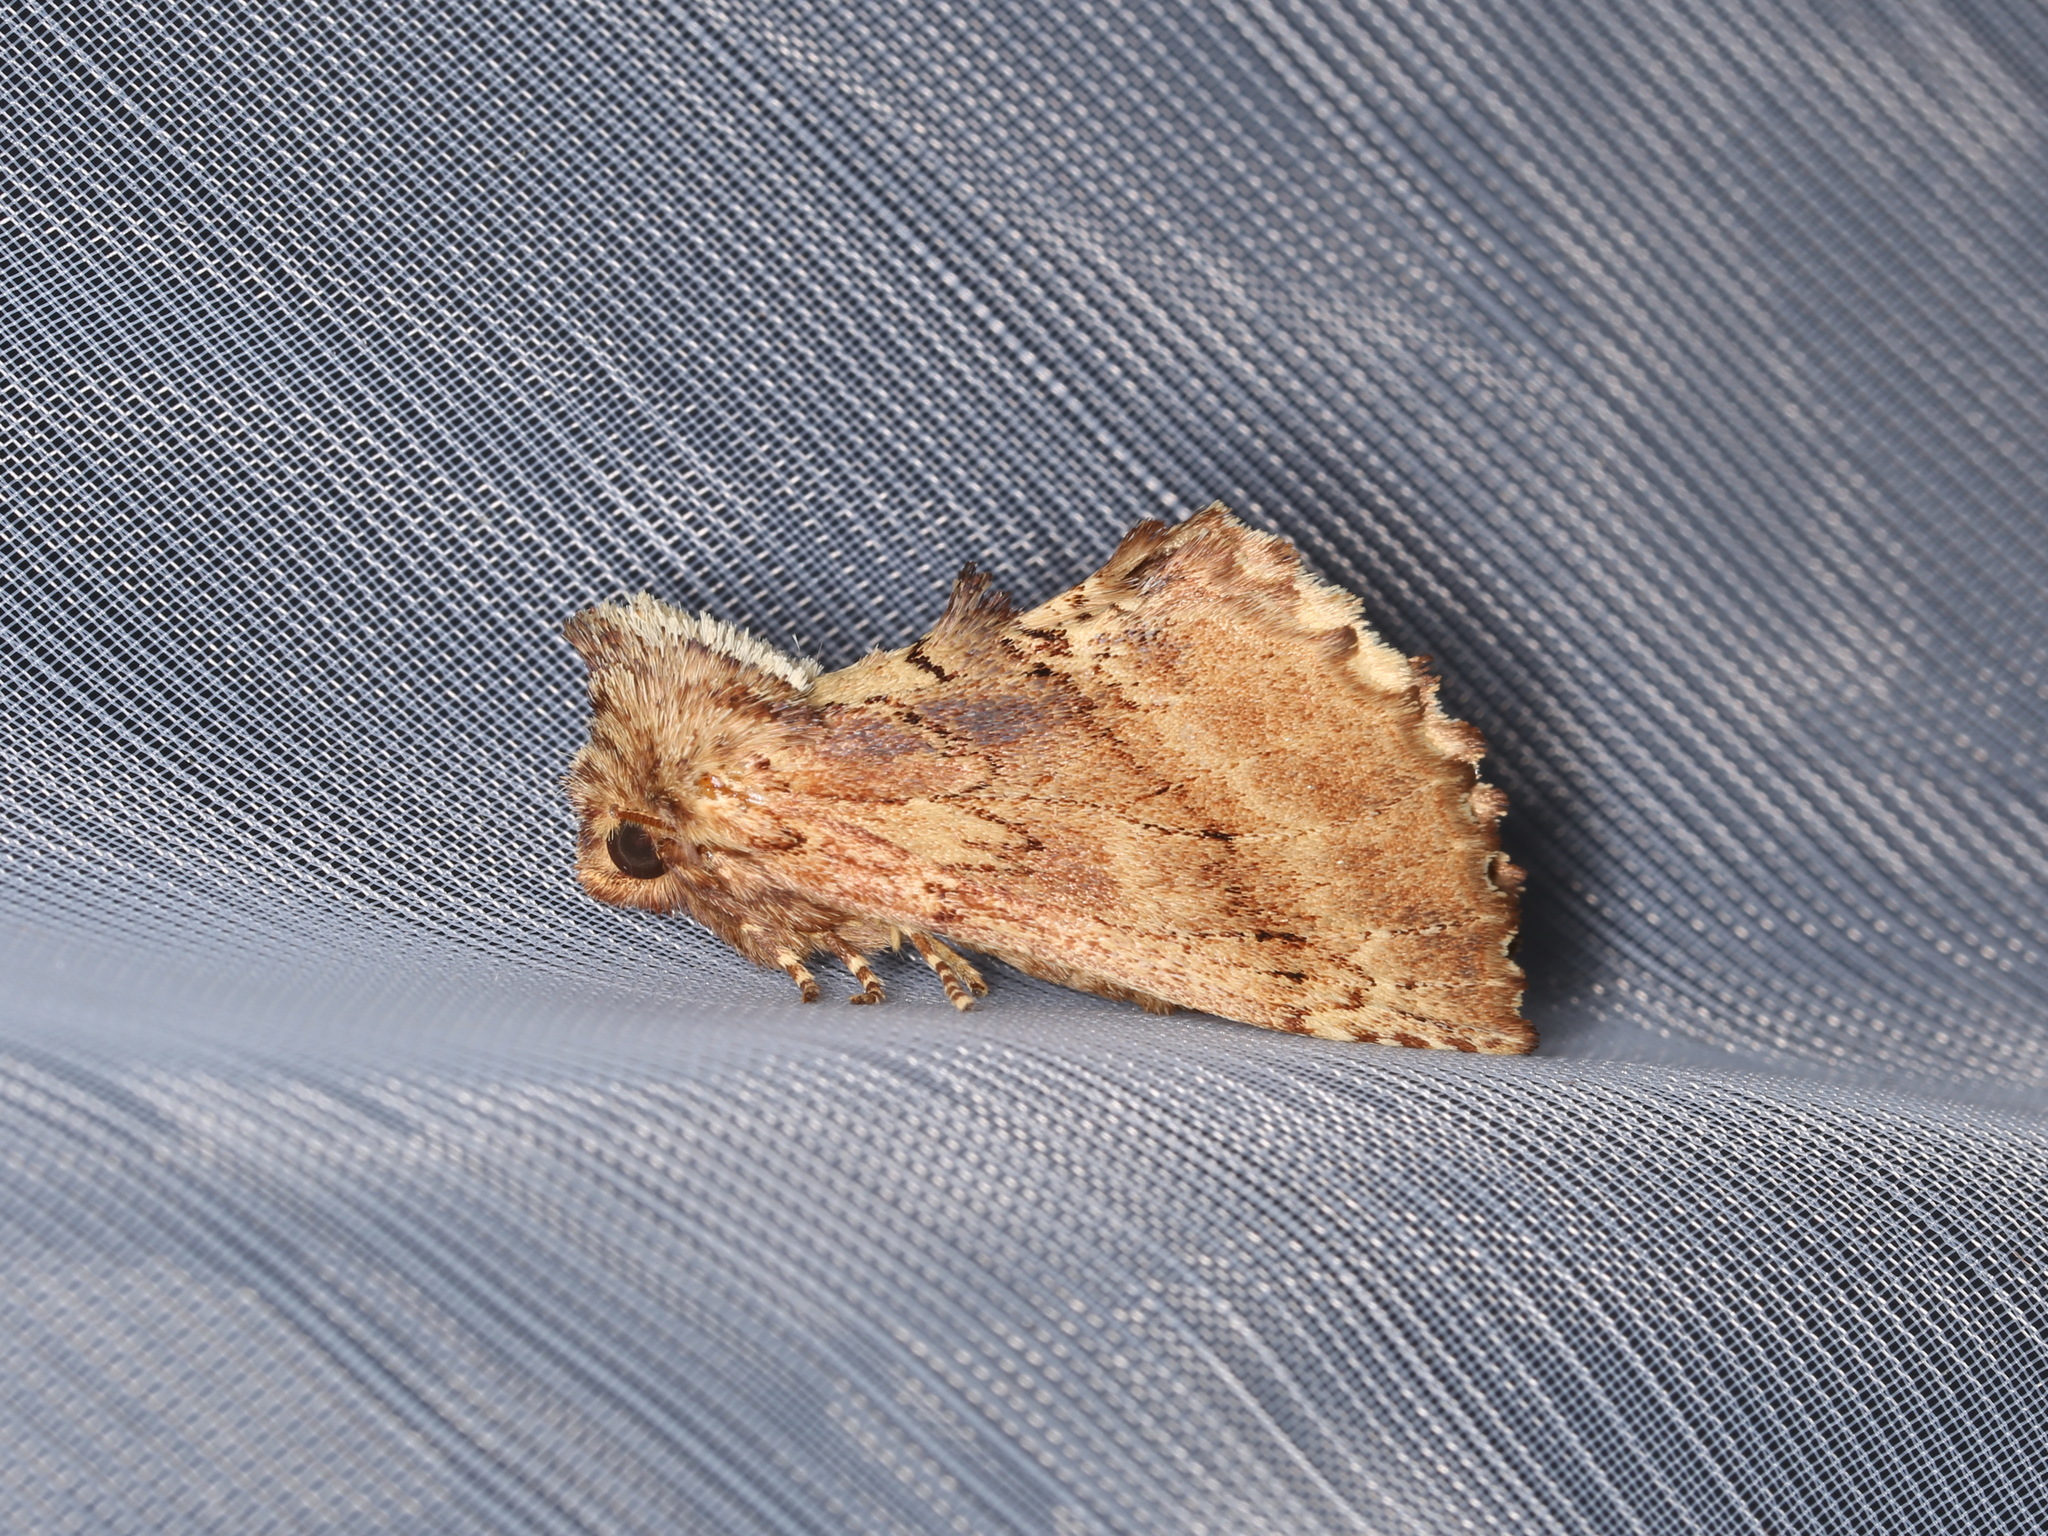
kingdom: Animalia
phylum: Arthropoda
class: Insecta
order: Lepidoptera
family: Notodontidae
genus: Ptilodon
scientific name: Ptilodon capucina
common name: Coxcomb prominent
